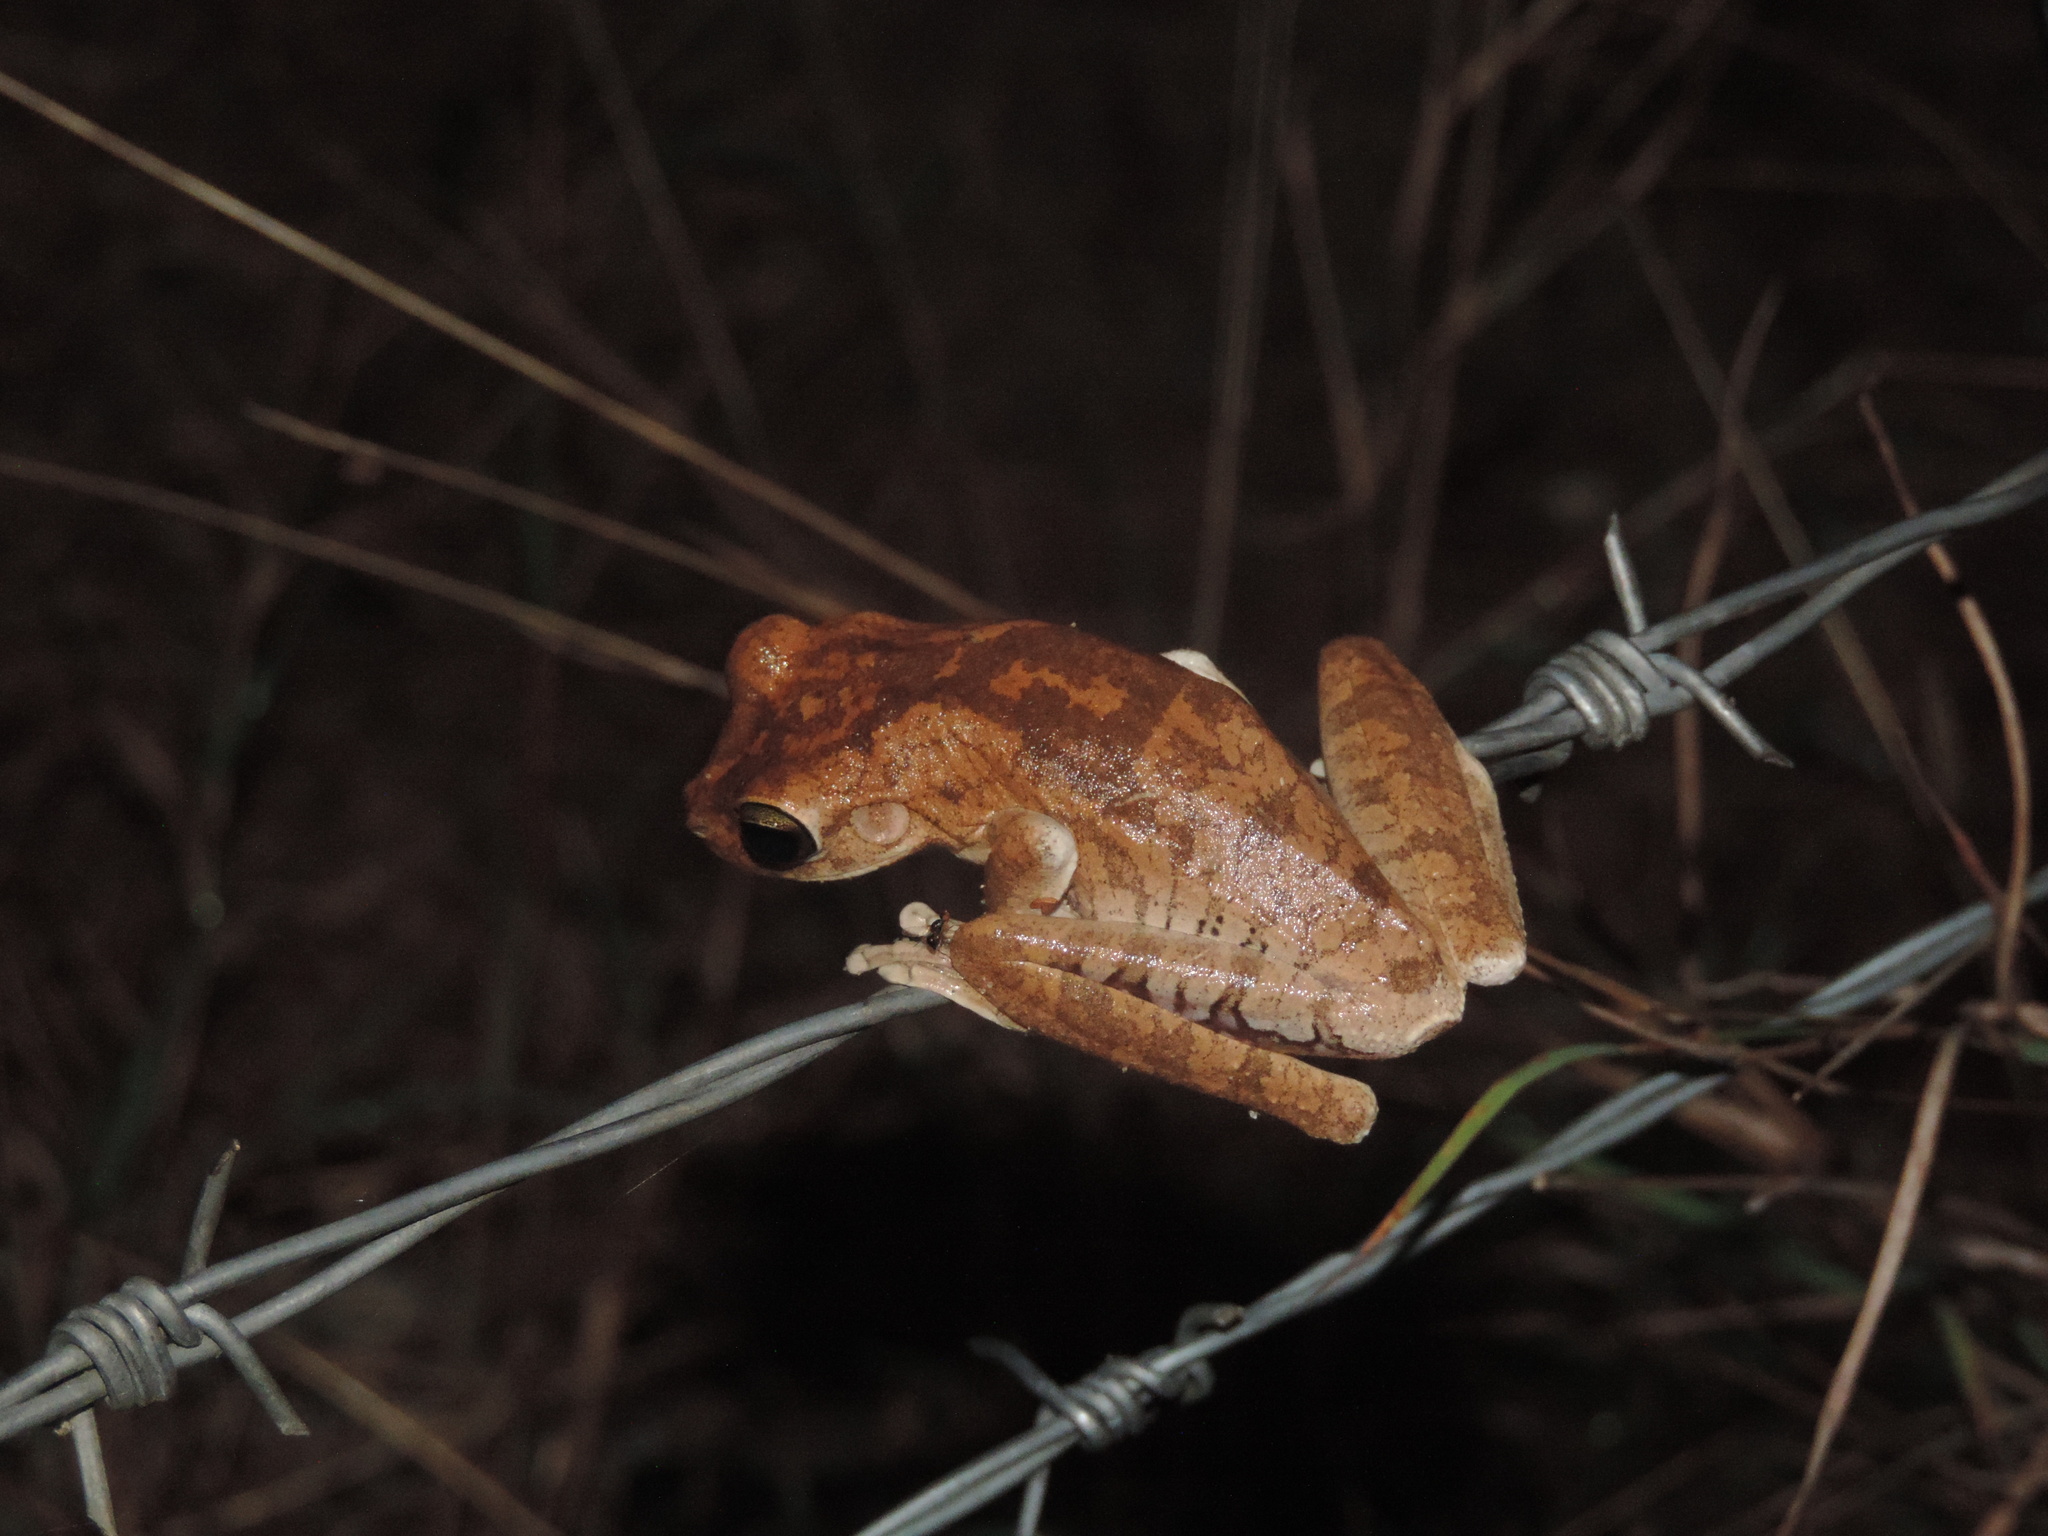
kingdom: Animalia
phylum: Chordata
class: Amphibia
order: Anura
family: Hylidae
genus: Boana
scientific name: Boana platanera
